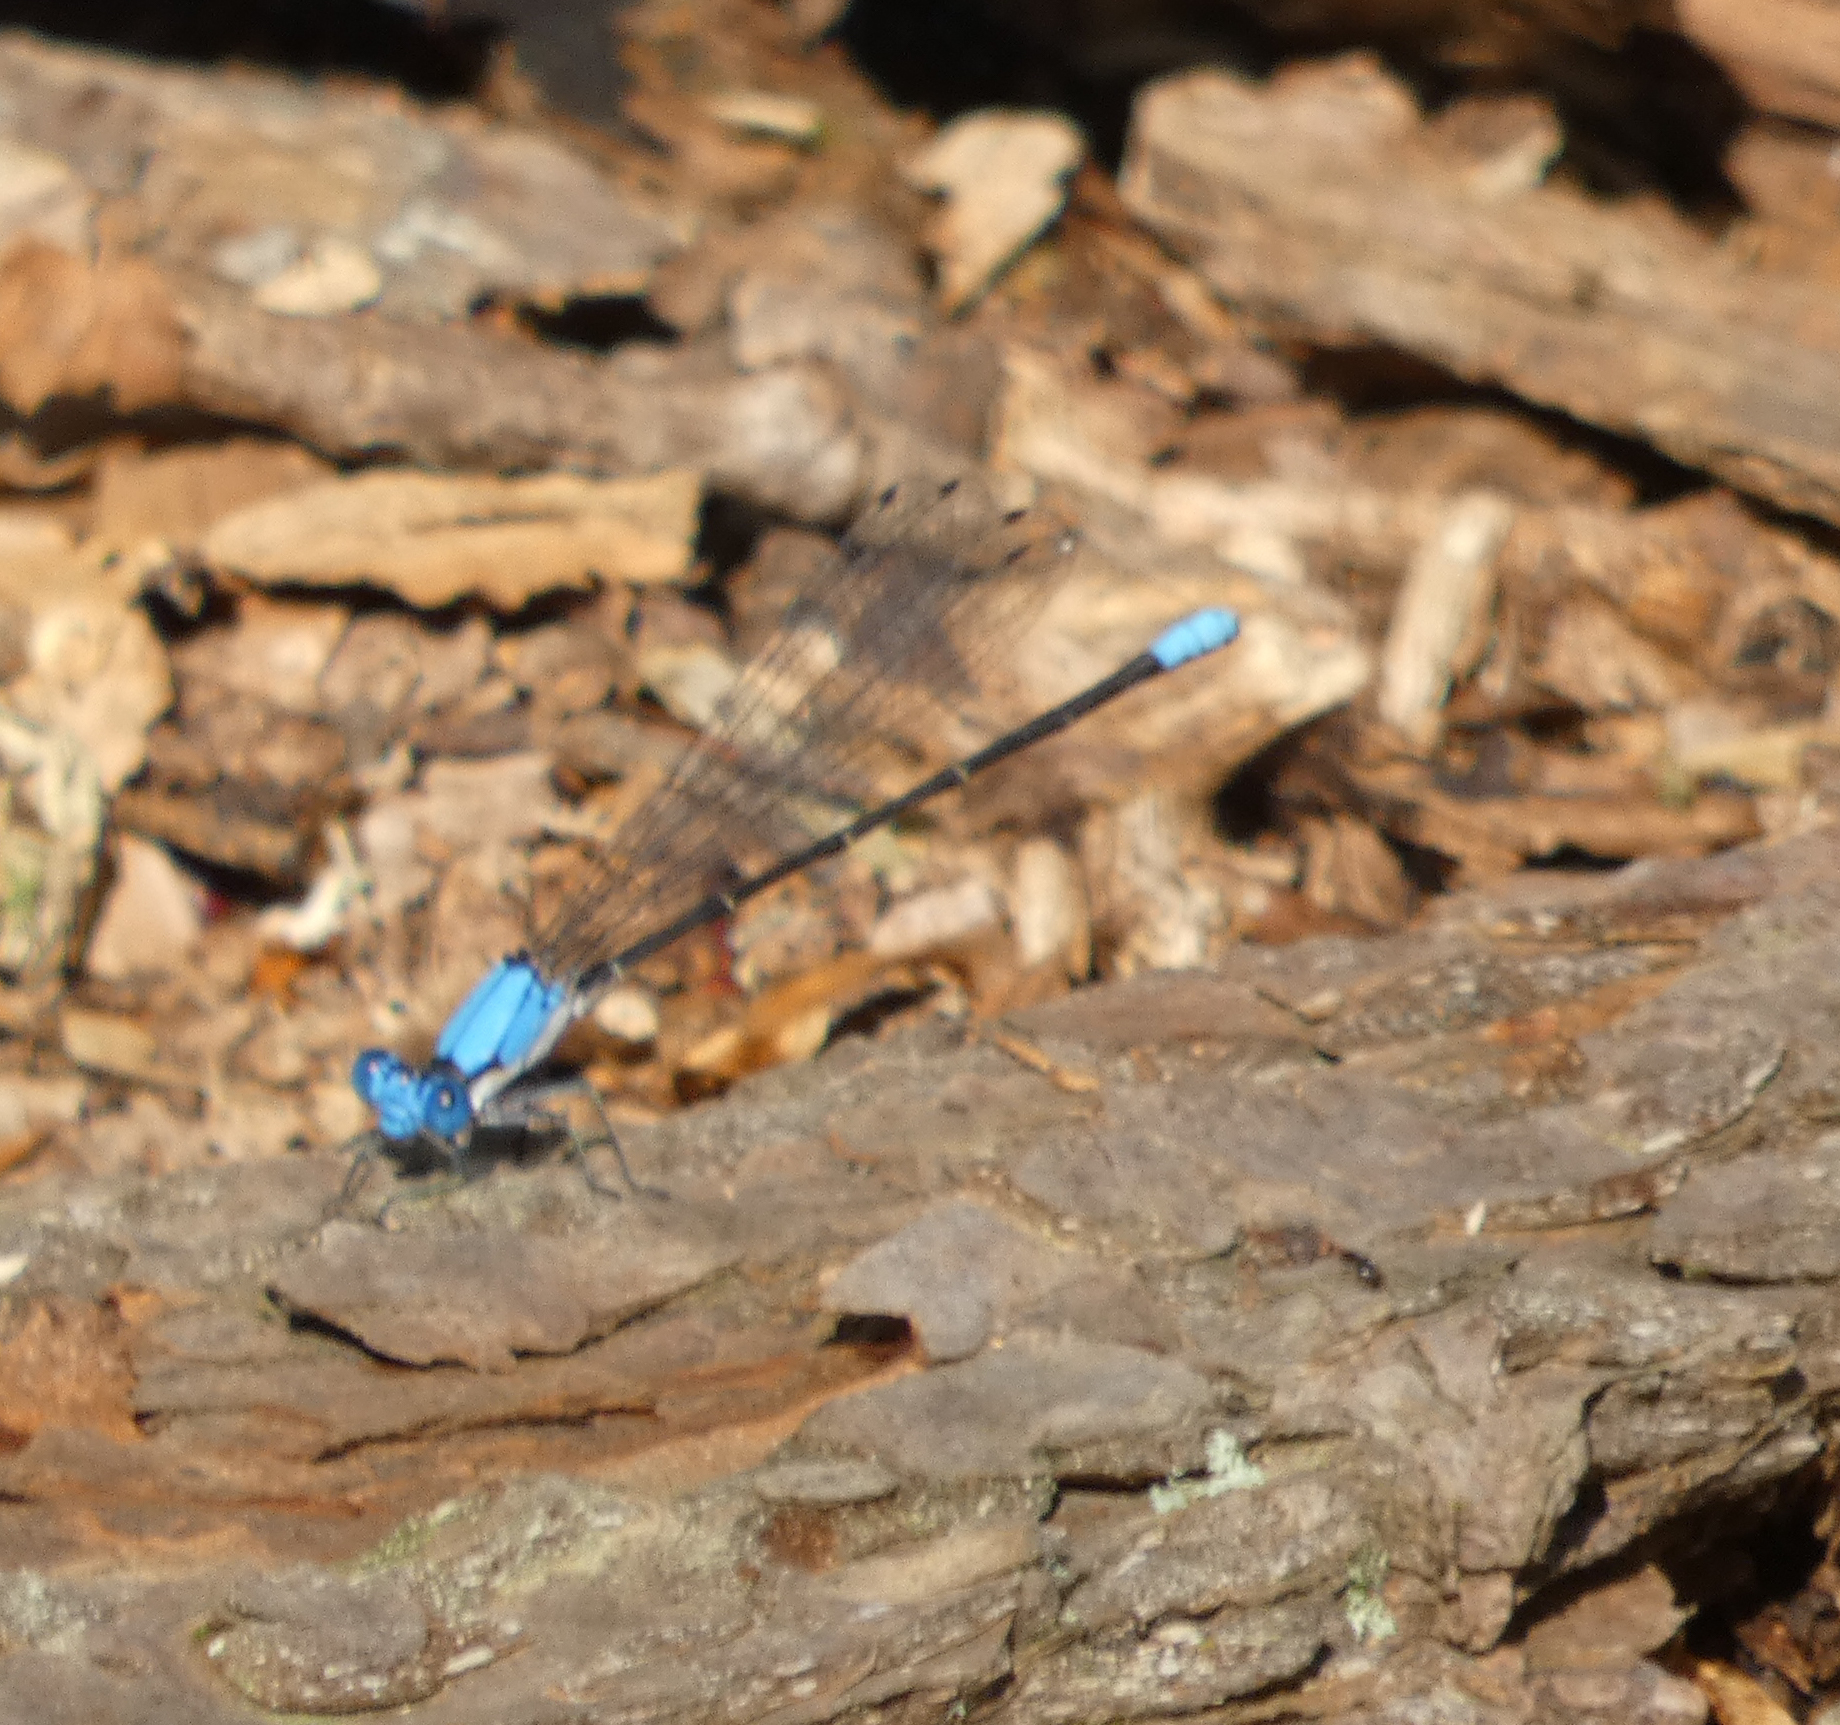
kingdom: Animalia
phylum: Arthropoda
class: Insecta
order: Odonata
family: Coenagrionidae
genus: Argia
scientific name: Argia apicalis
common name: Blue-fronted dancer
